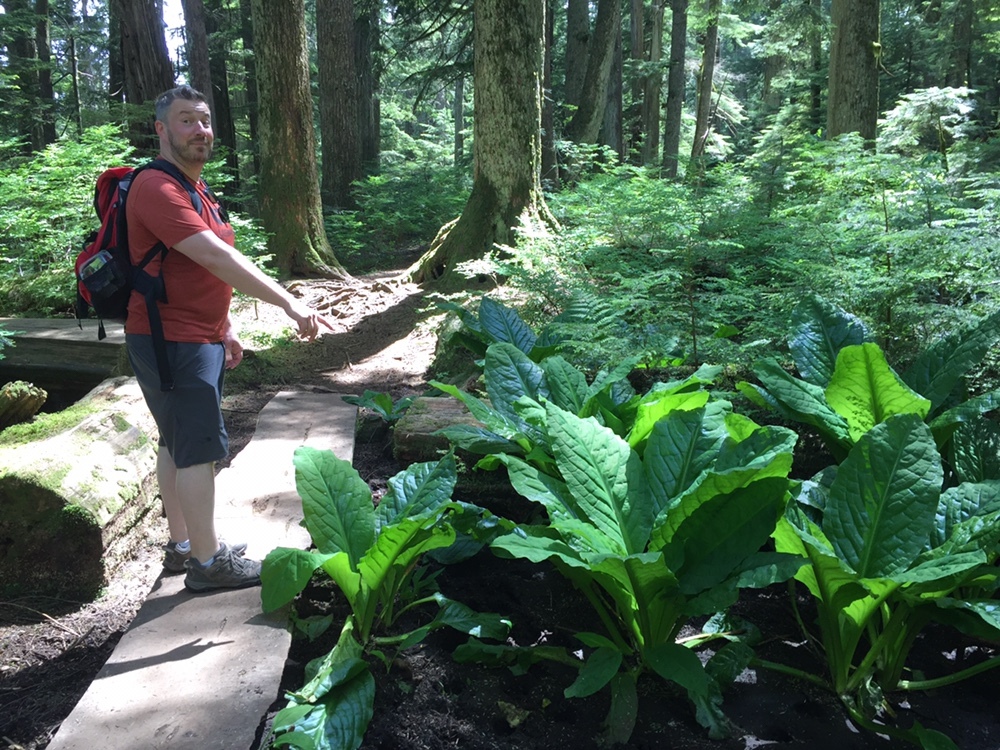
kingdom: Plantae
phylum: Tracheophyta
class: Liliopsida
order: Alismatales
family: Araceae
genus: Lysichiton
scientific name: Lysichiton americanus
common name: American skunk cabbage
